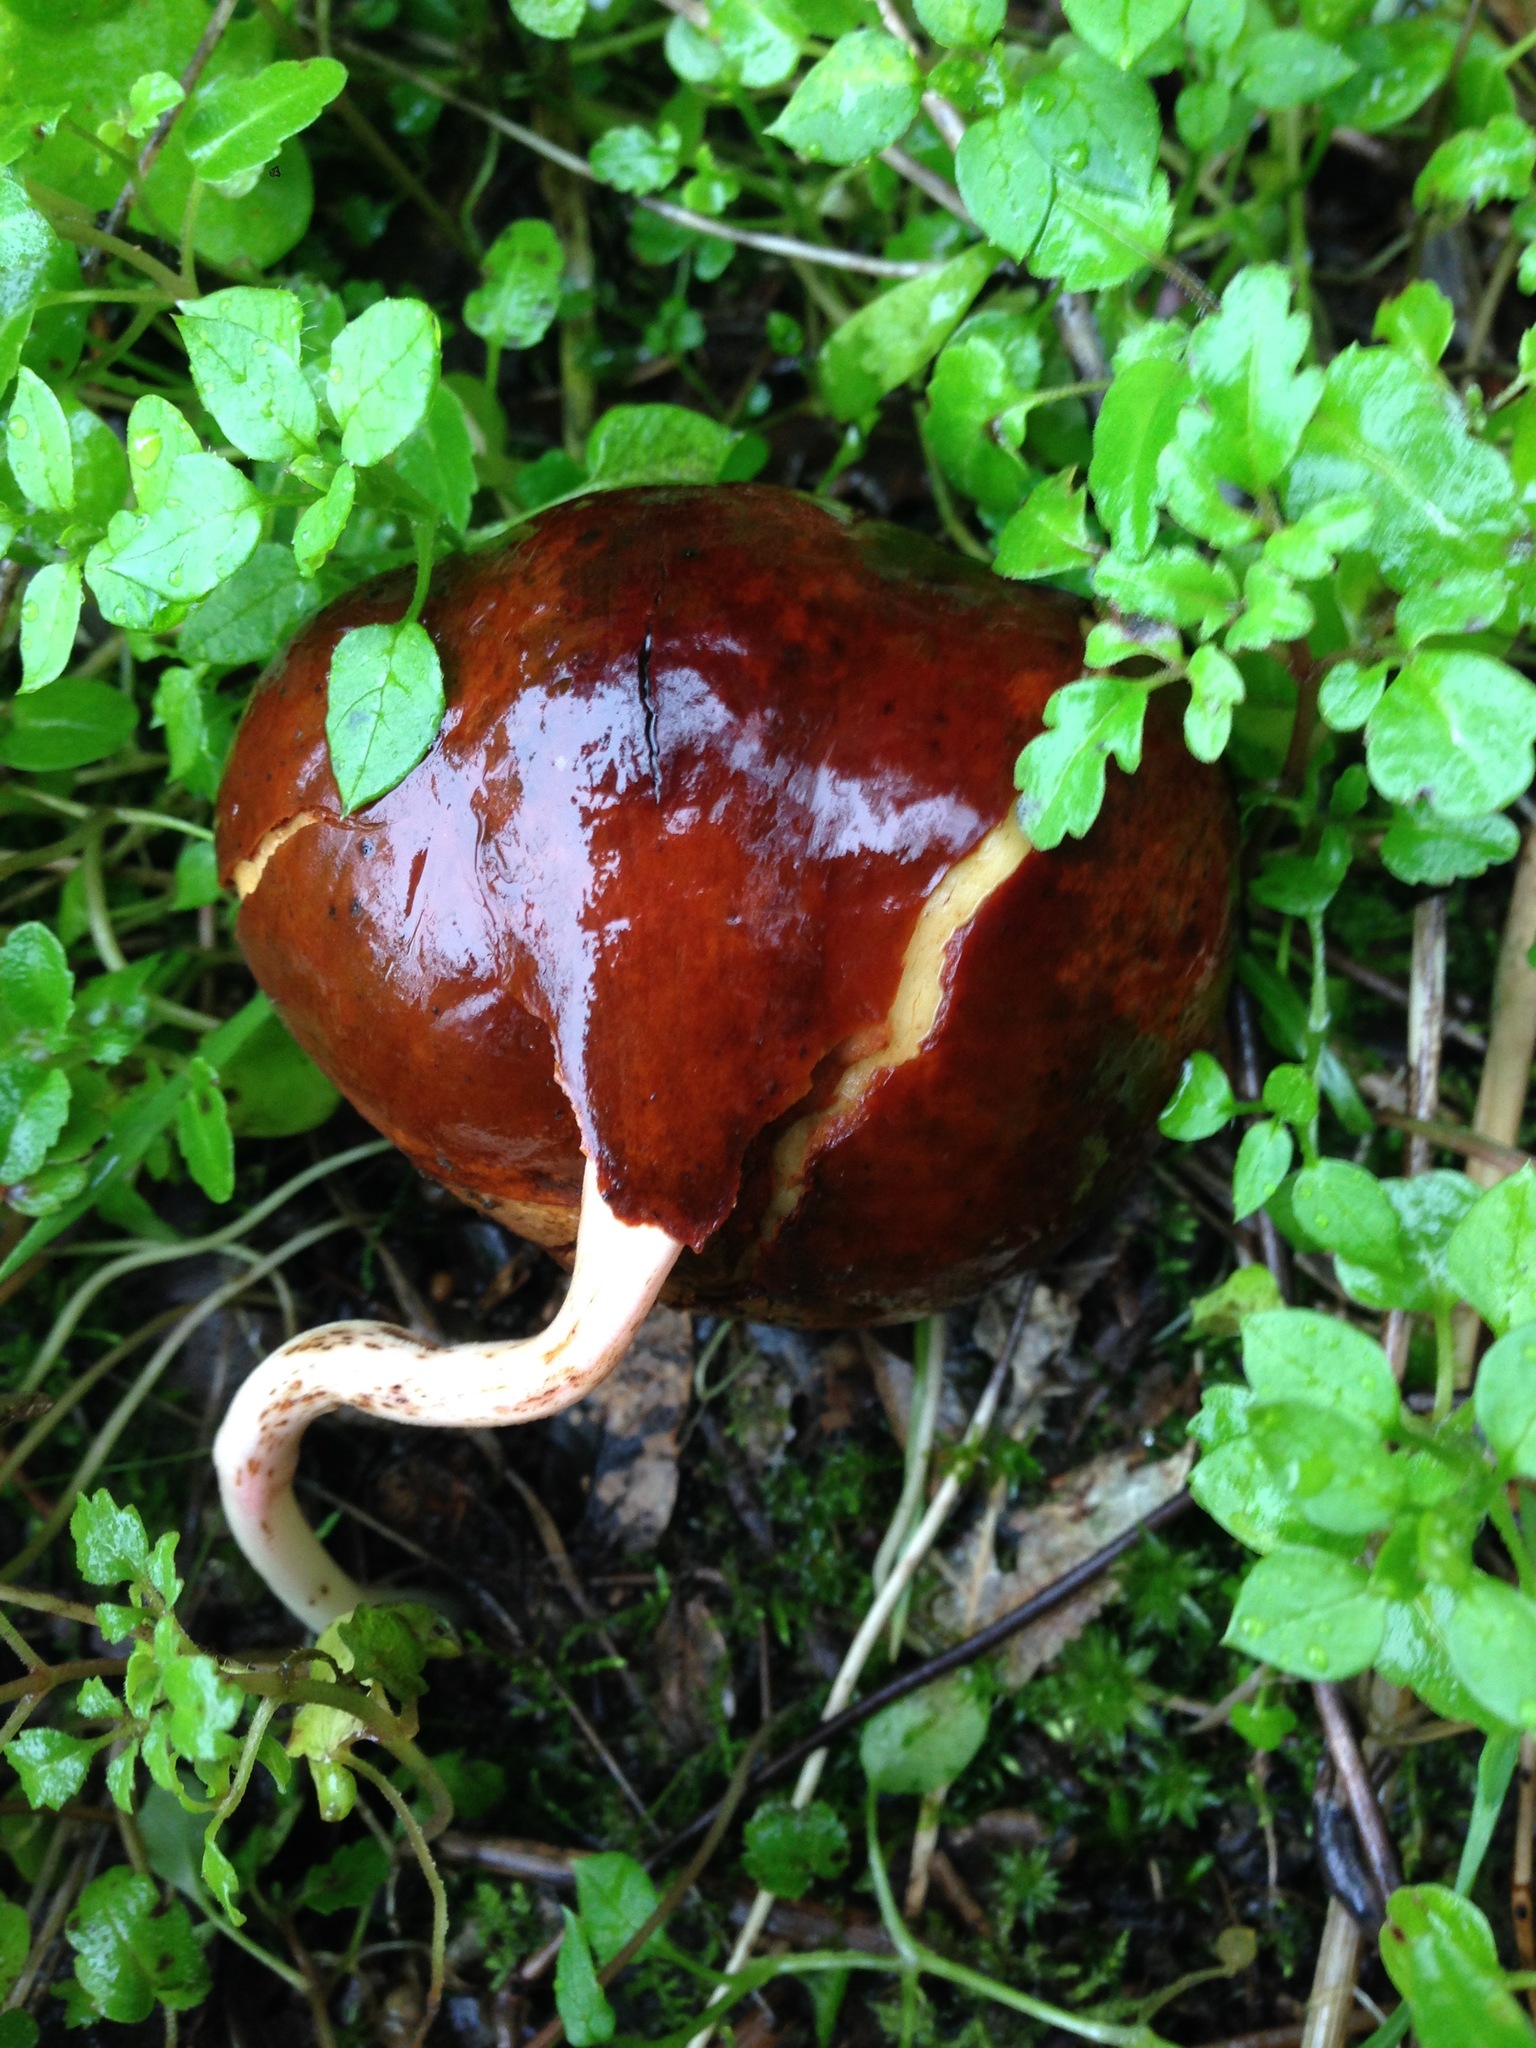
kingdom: Plantae
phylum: Tracheophyta
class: Magnoliopsida
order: Sapindales
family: Sapindaceae
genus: Aesculus
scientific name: Aesculus californica
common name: California buckeye
